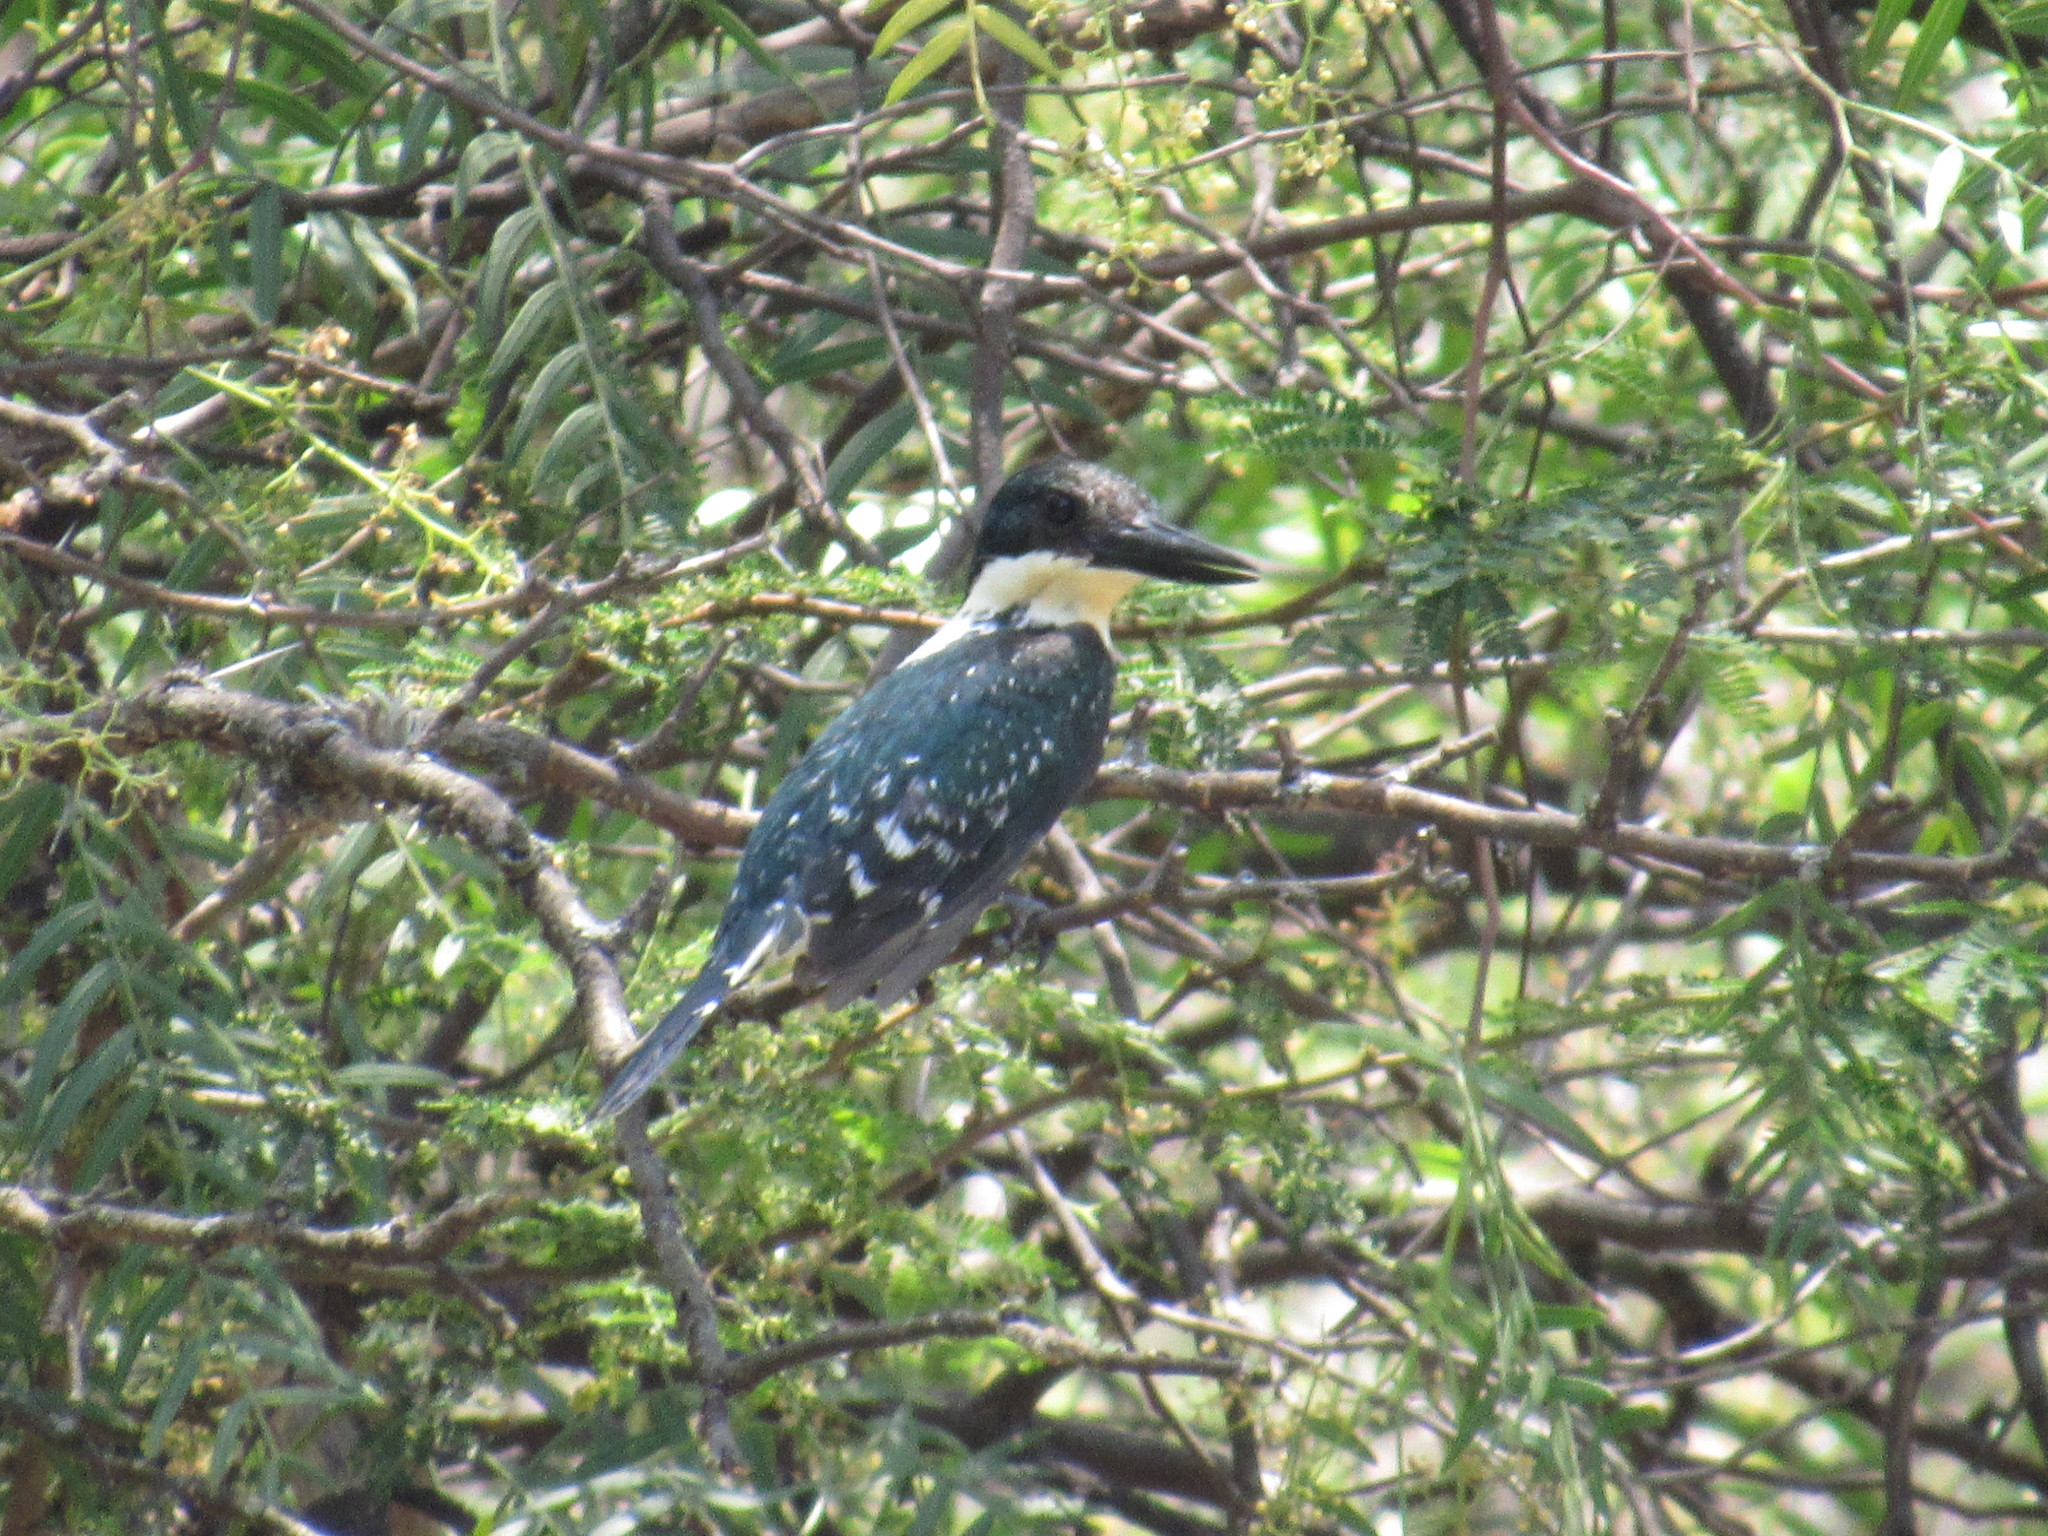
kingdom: Animalia
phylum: Chordata
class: Aves
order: Coraciiformes
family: Alcedinidae
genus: Chloroceryle
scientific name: Chloroceryle americana
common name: Green kingfisher
